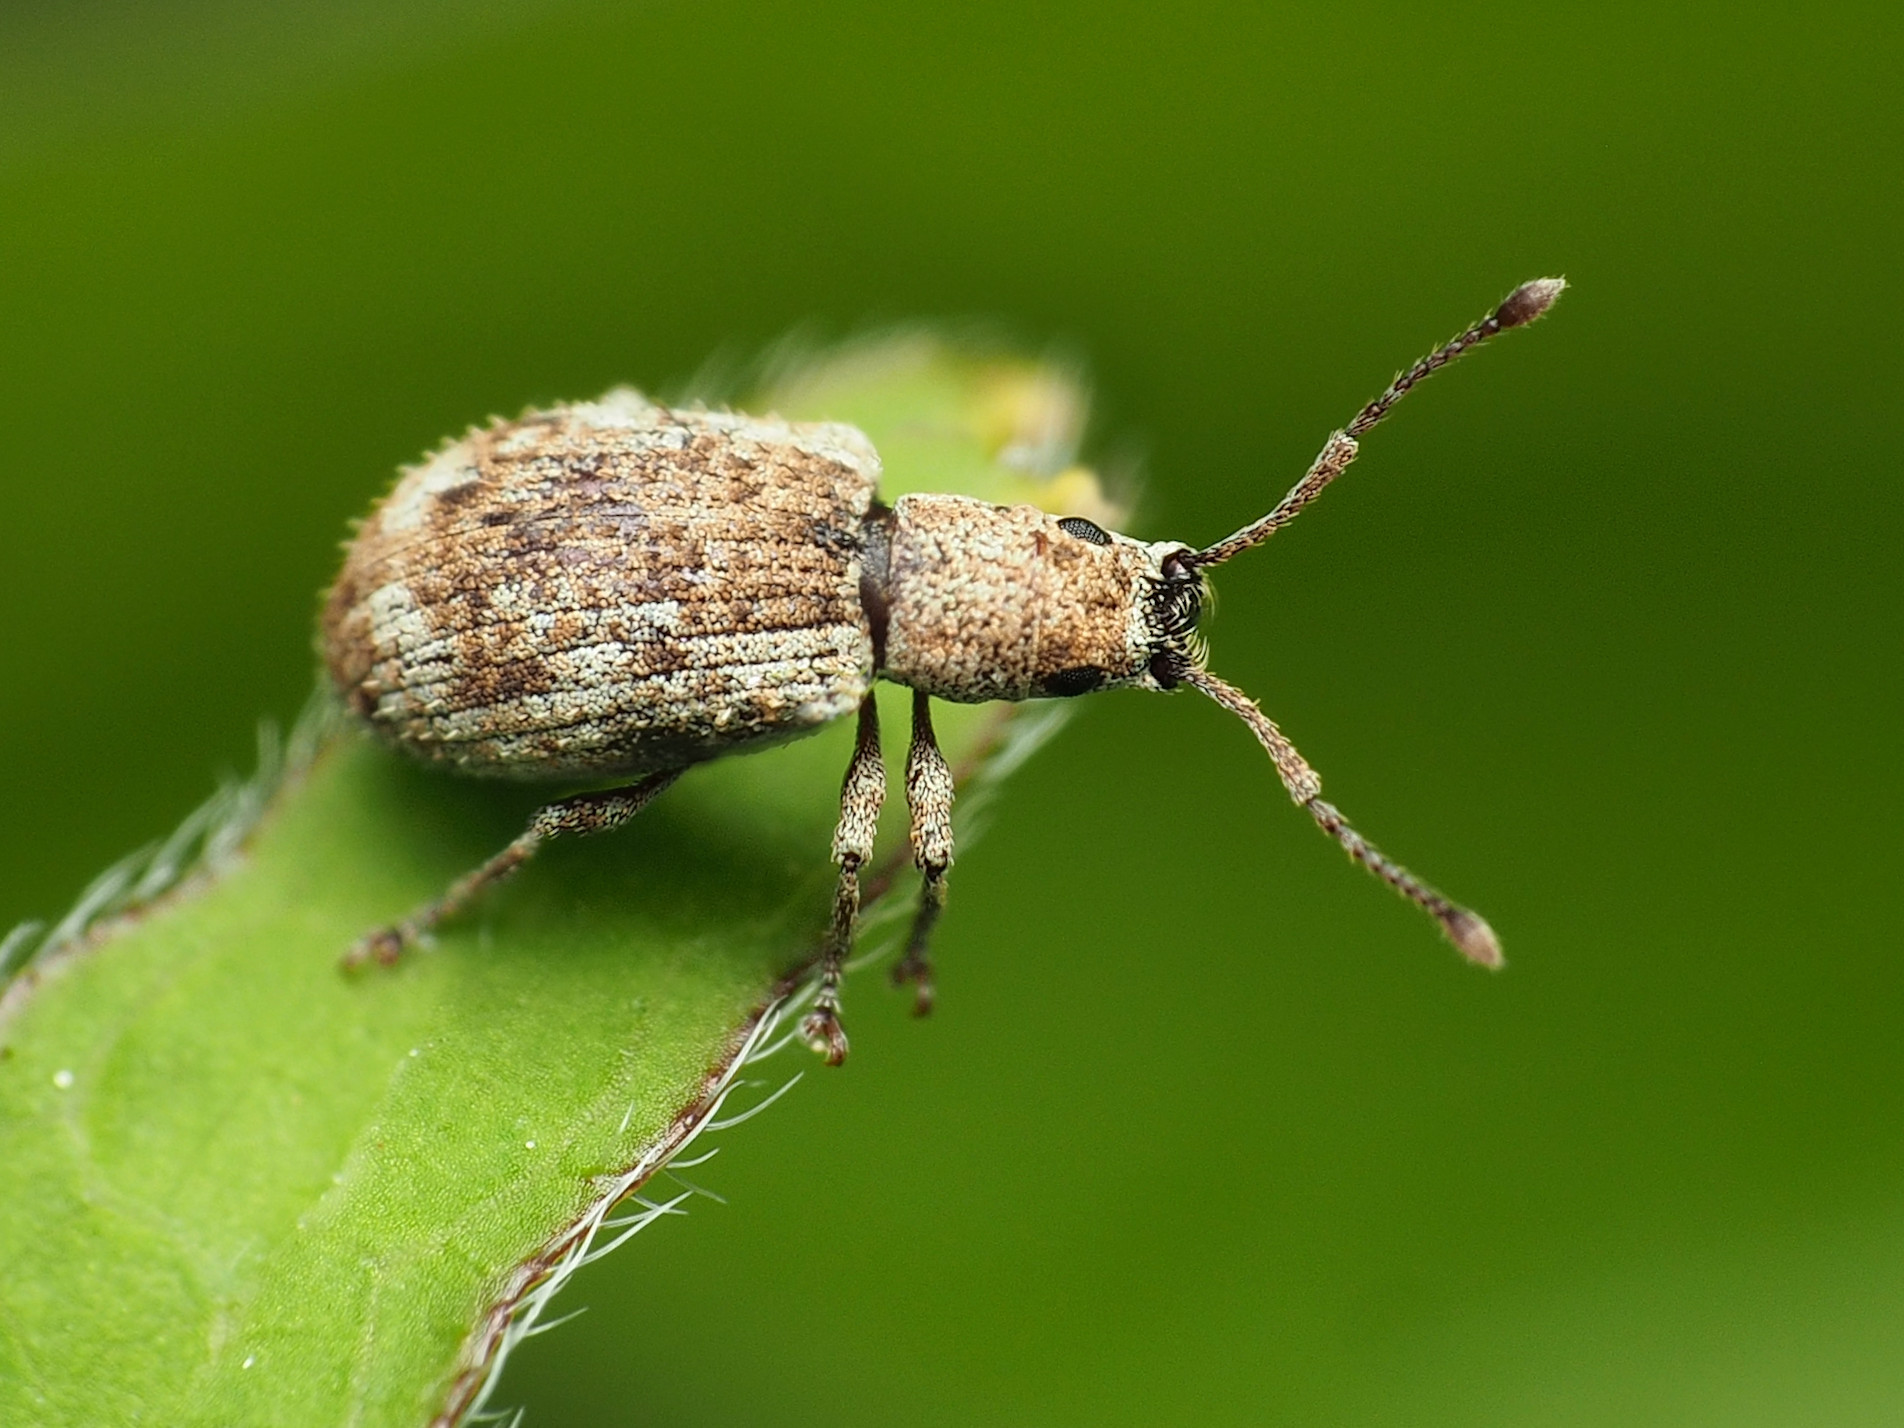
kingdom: Animalia
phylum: Arthropoda
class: Insecta
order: Coleoptera
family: Curculionidae
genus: Pseudoedophrys
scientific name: Pseudoedophrys hilleri
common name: Weevil
